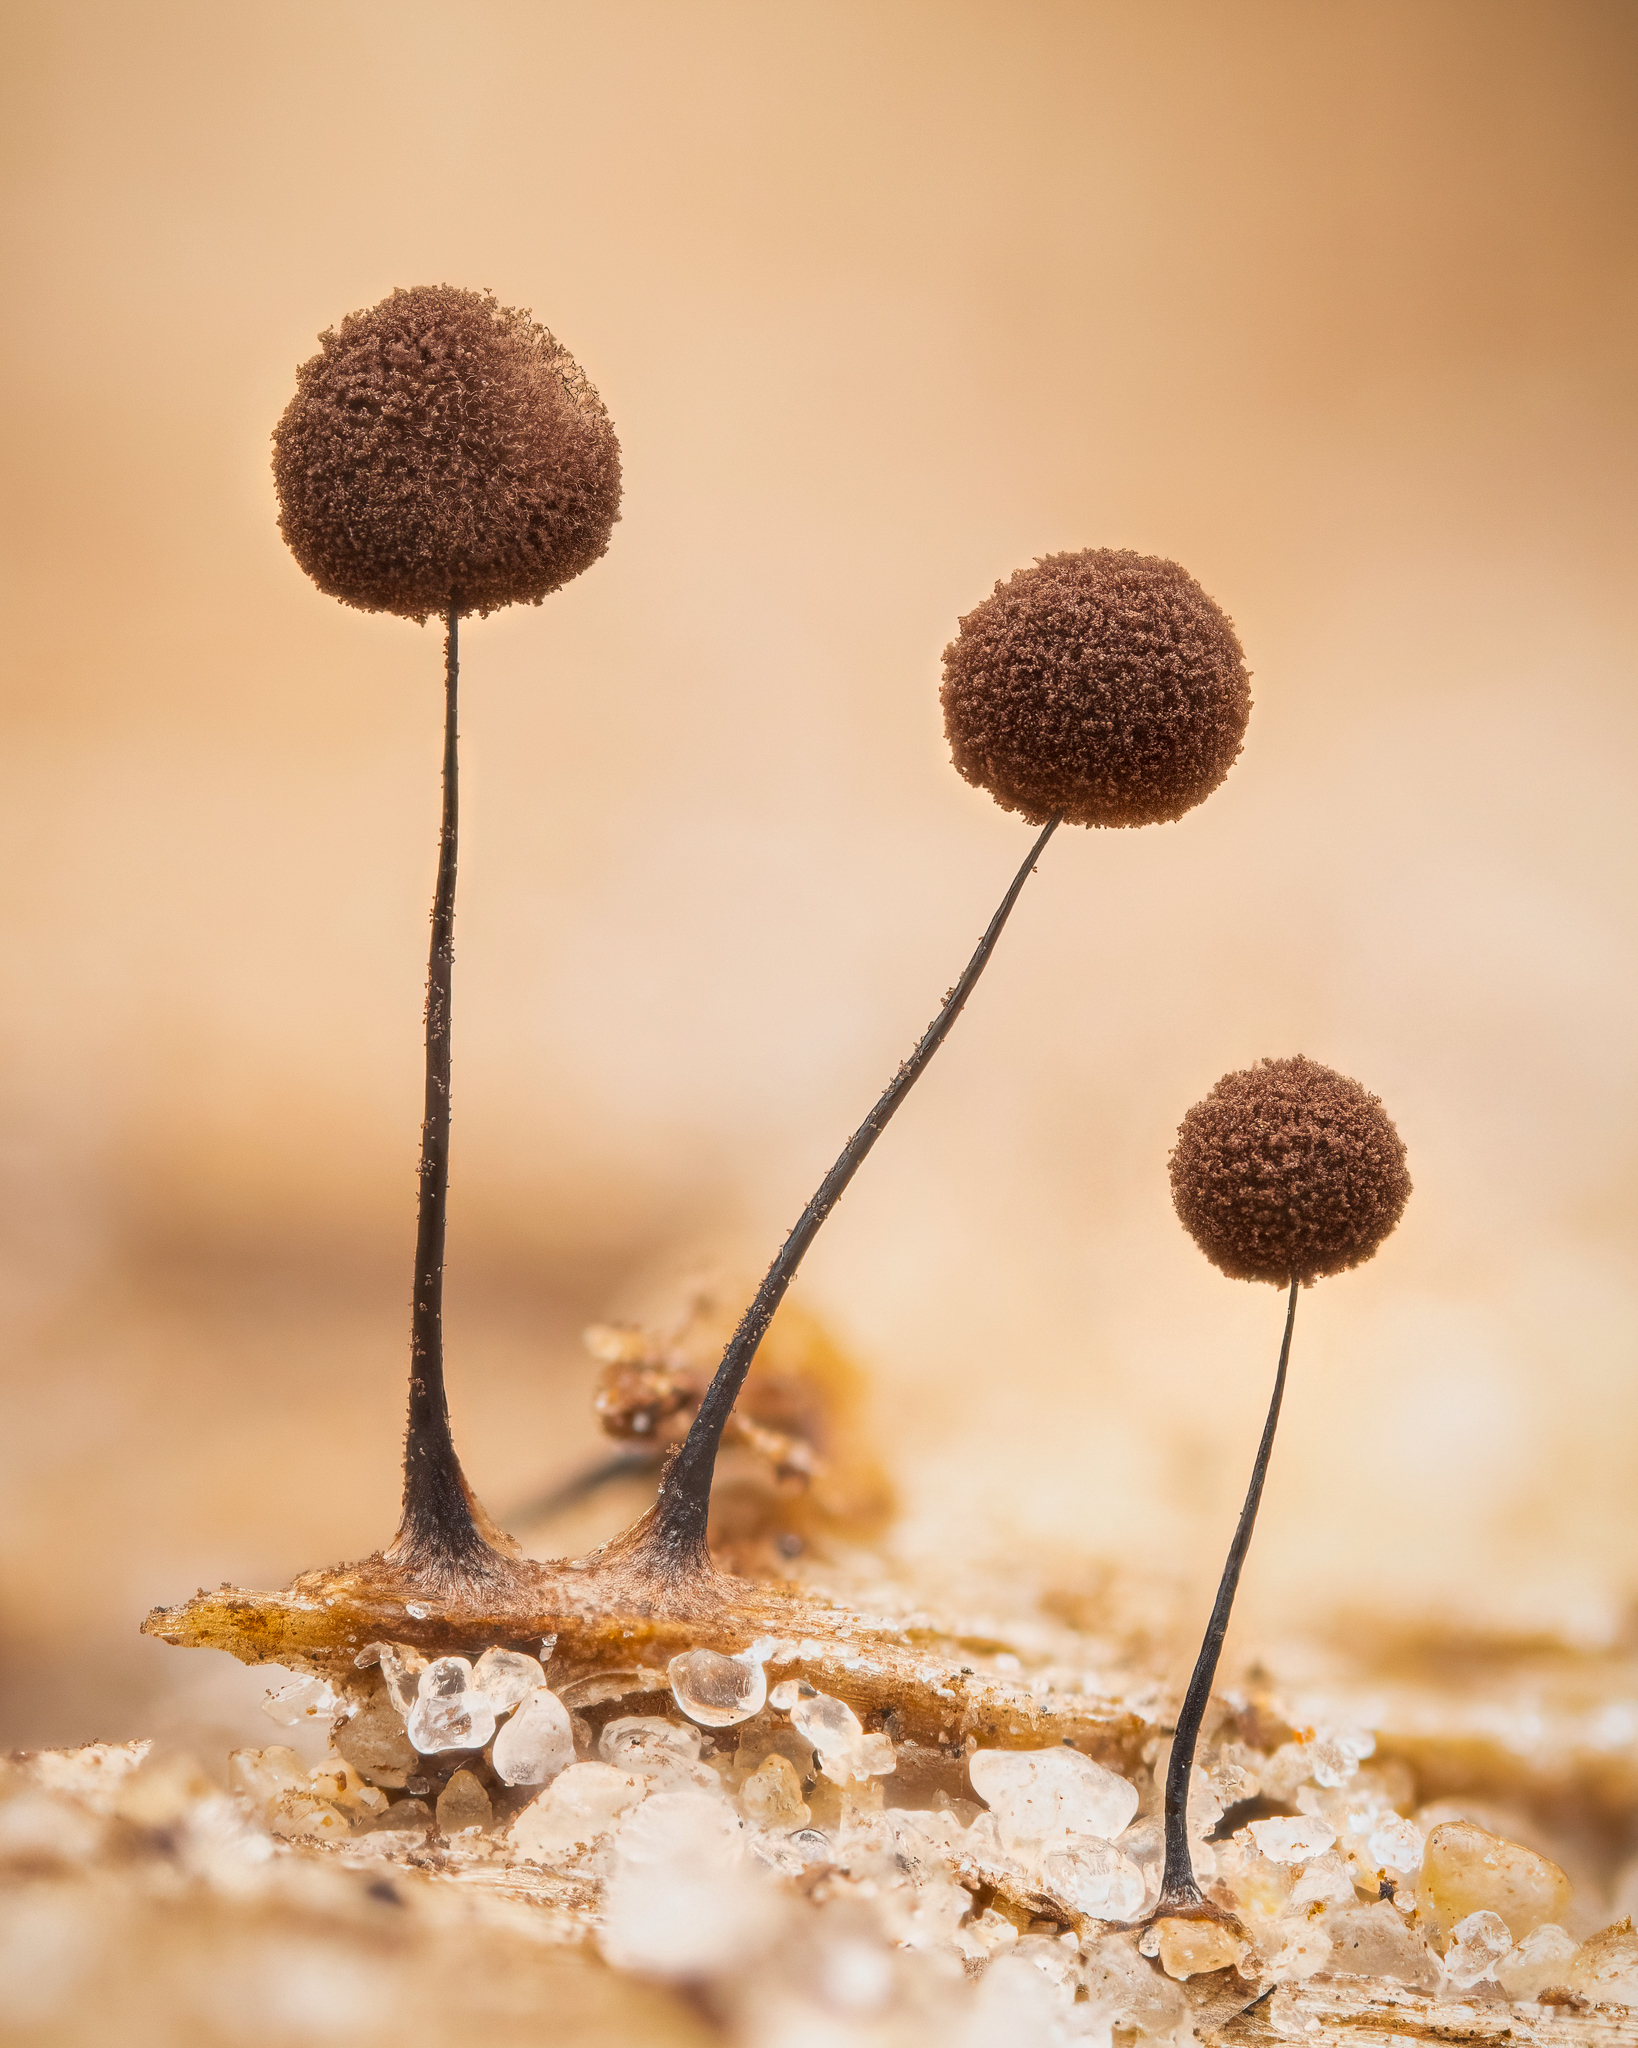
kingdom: Protozoa
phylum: Mycetozoa
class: Myxomycetes
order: Stemonitidales
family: Stemonitidaceae
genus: Comatricha
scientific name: Comatricha nigra
